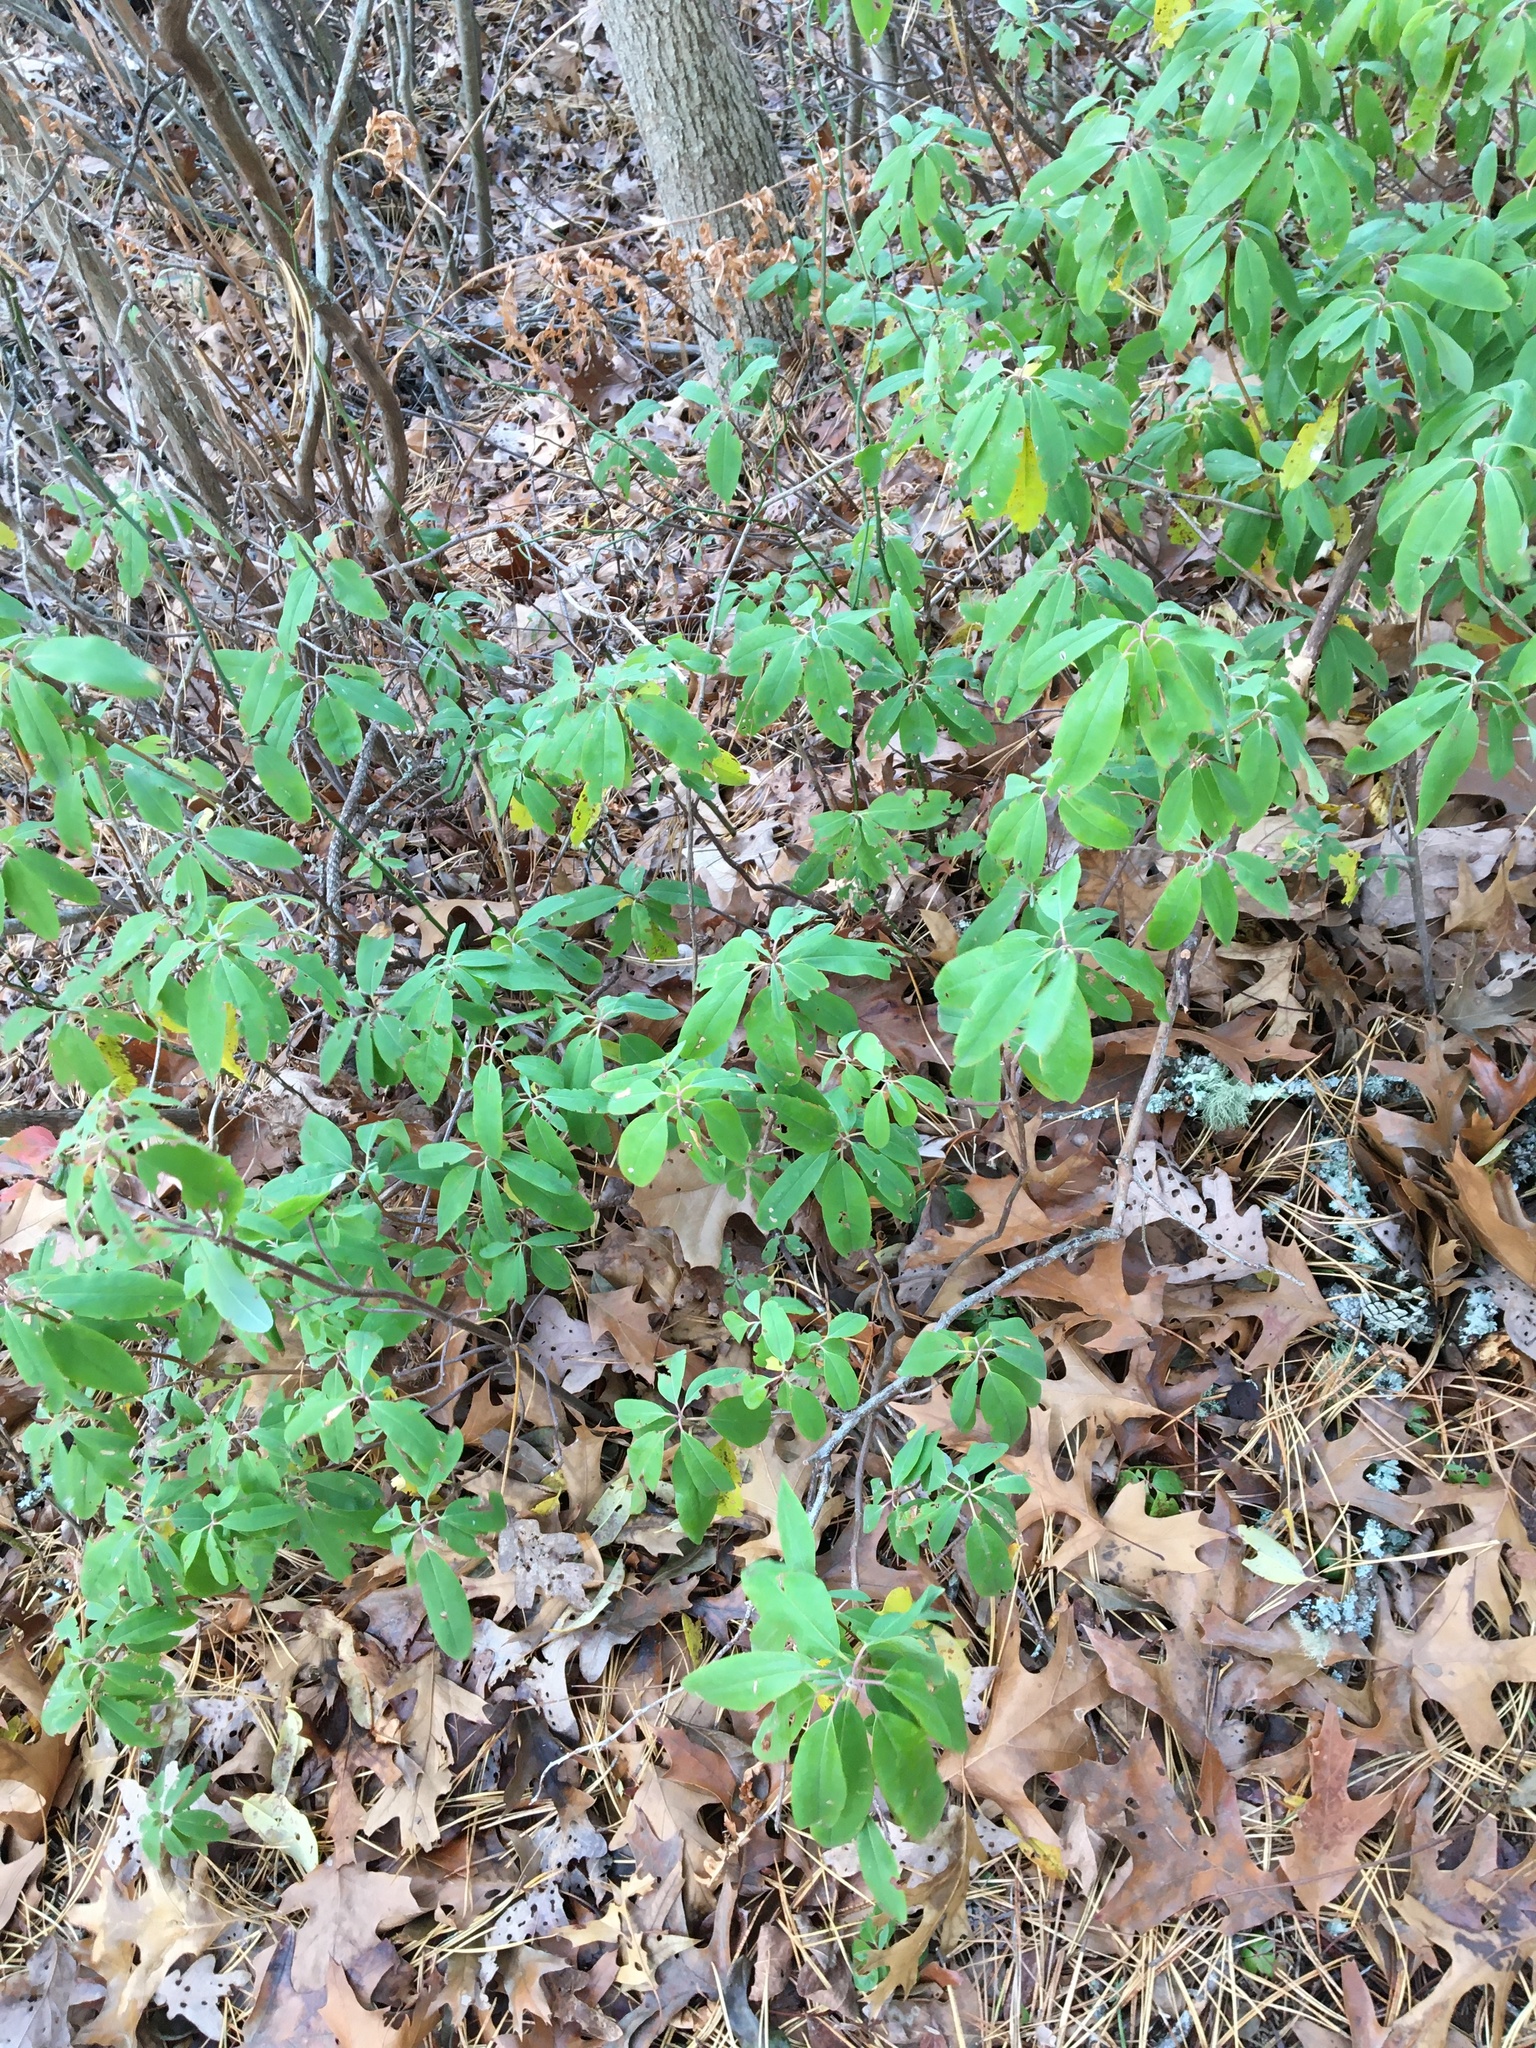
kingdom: Plantae
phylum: Tracheophyta
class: Magnoliopsida
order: Ericales
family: Ericaceae
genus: Kalmia
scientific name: Kalmia angustifolia
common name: Sheep-laurel
